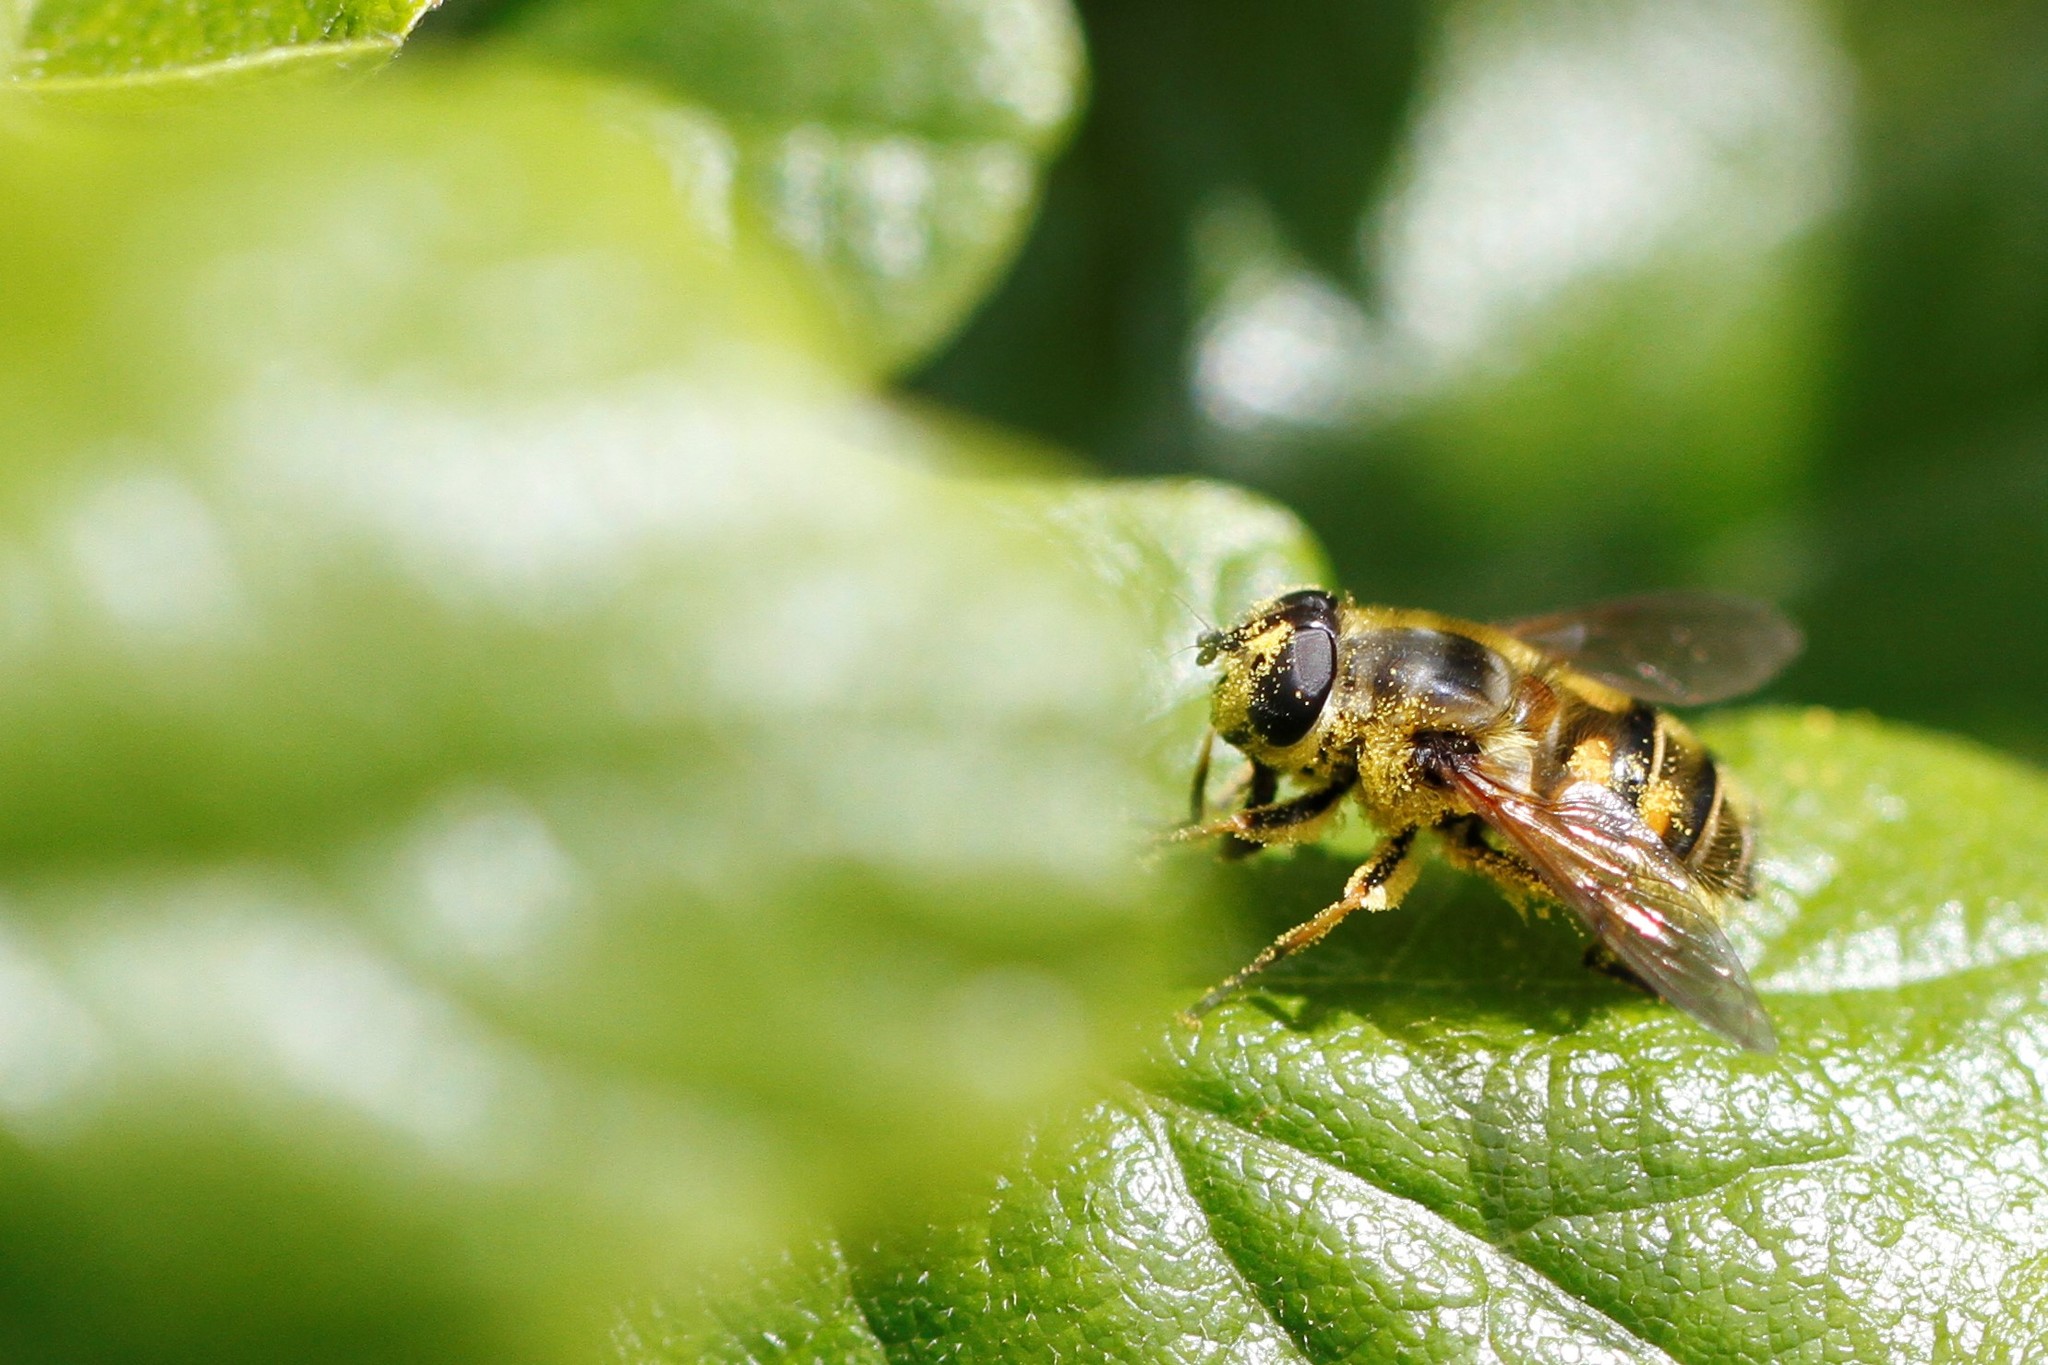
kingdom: Animalia
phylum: Arthropoda
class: Insecta
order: Diptera
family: Syrphidae
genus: Myathropa
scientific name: Myathropa florea
